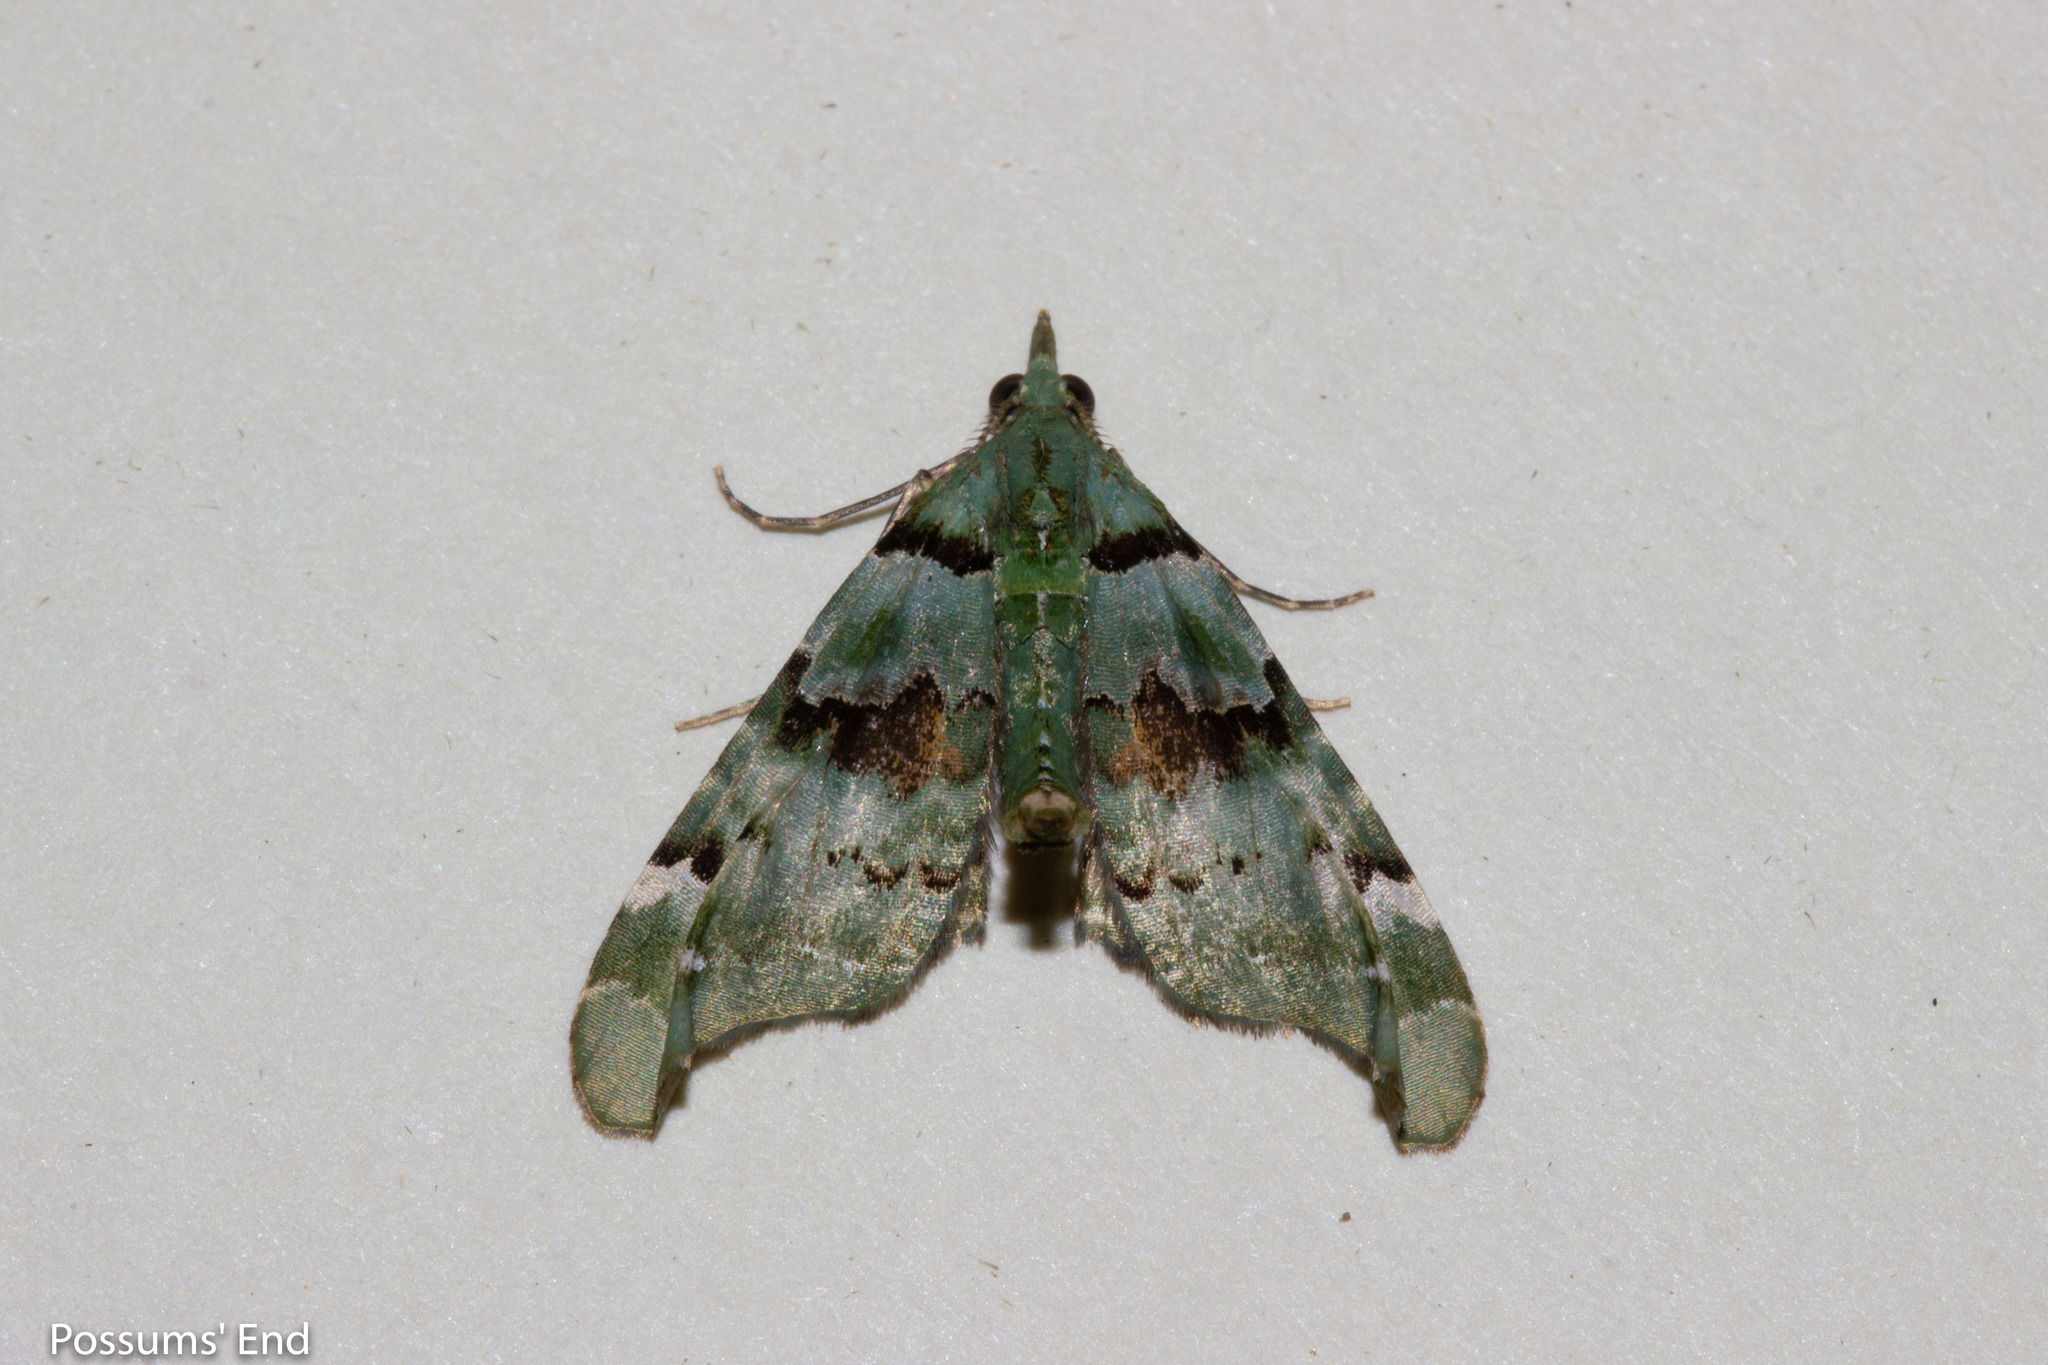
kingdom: Animalia
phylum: Arthropoda
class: Insecta
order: Lepidoptera
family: Geometridae
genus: Elvia
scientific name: Elvia glaucata
